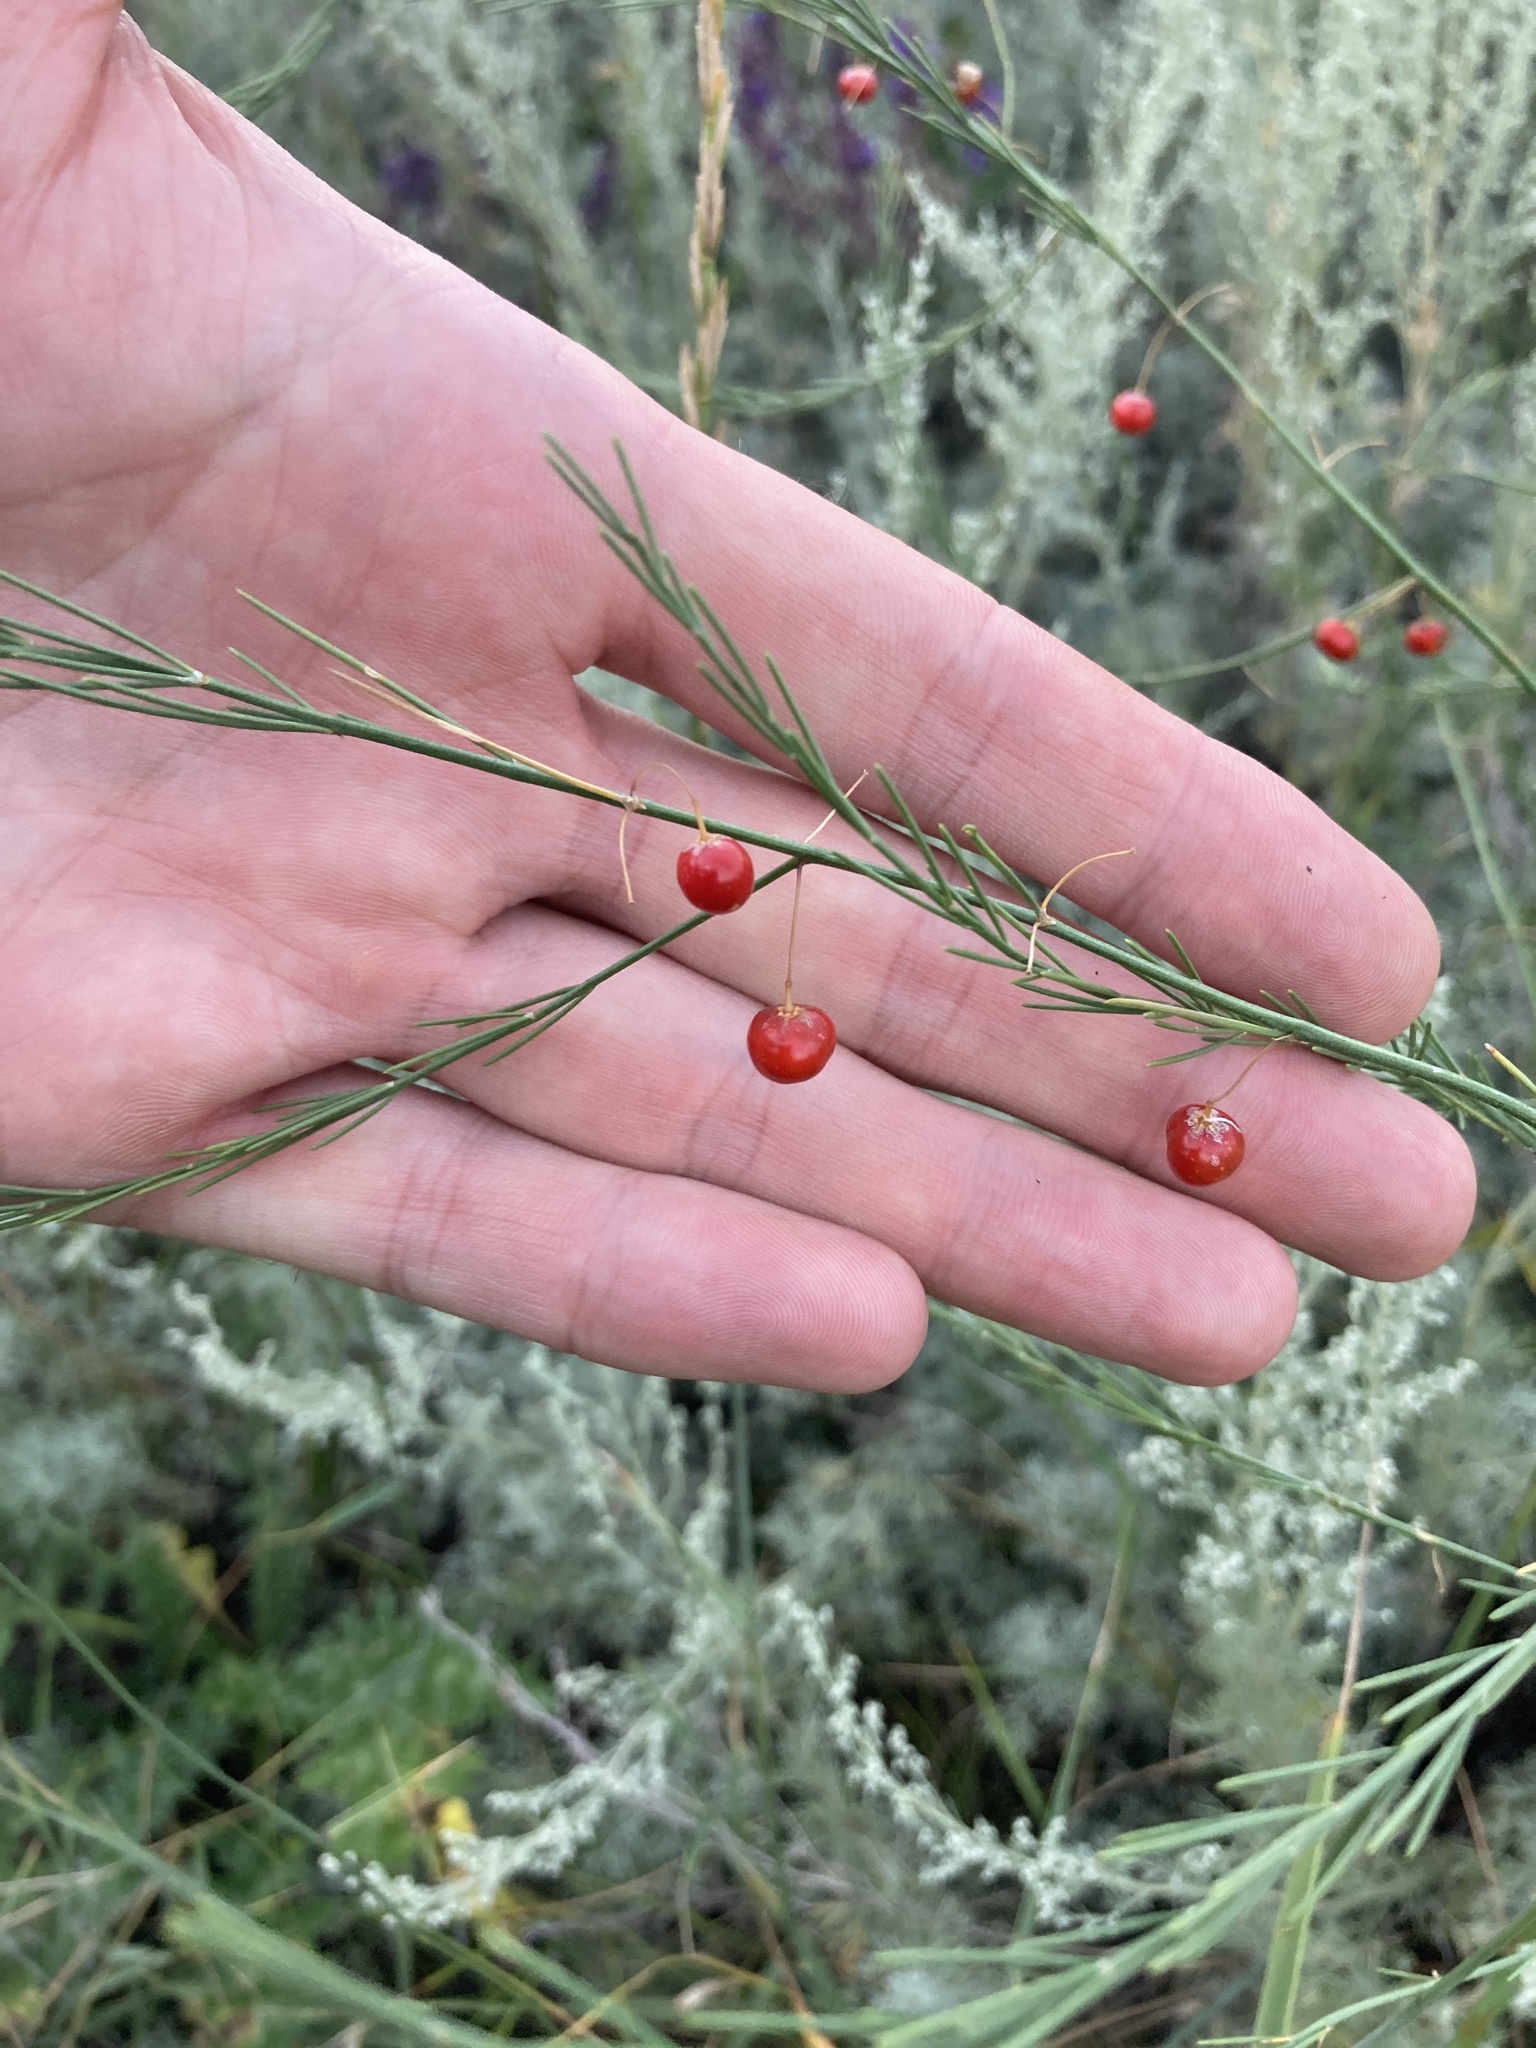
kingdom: Plantae
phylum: Tracheophyta
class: Liliopsida
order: Asparagales
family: Asparagaceae
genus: Asparagus
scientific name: Asparagus officinalis
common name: Garden asparagus
